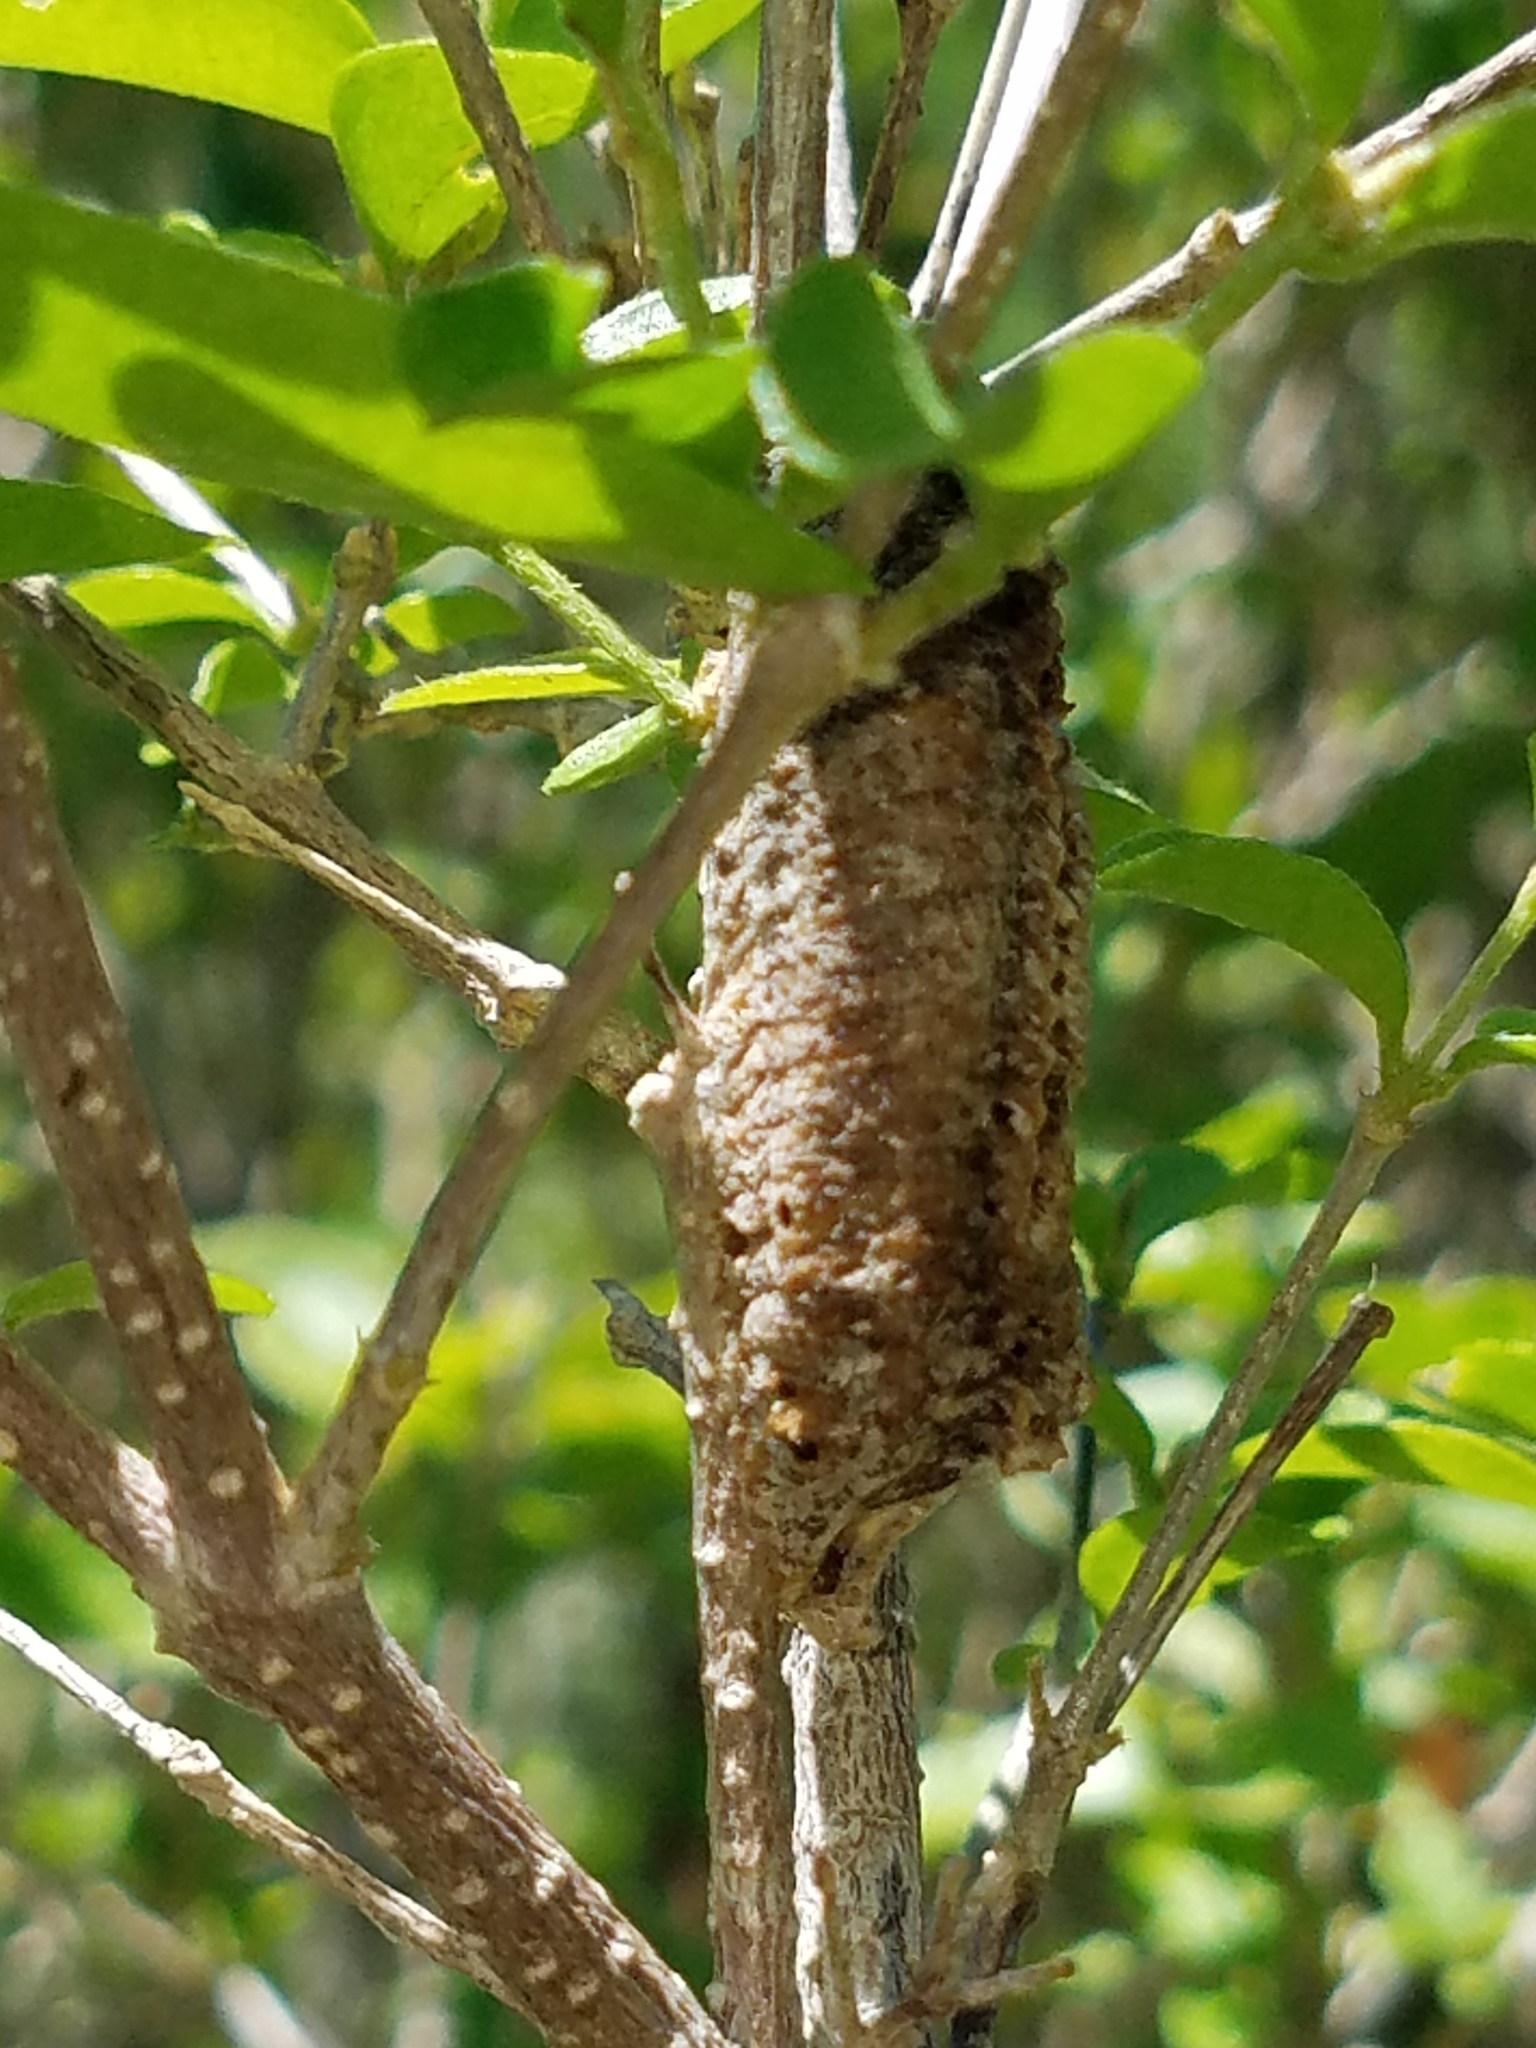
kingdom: Animalia
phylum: Arthropoda
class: Insecta
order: Mantodea
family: Mantidae
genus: Stagmomantis
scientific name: Stagmomantis carolina
